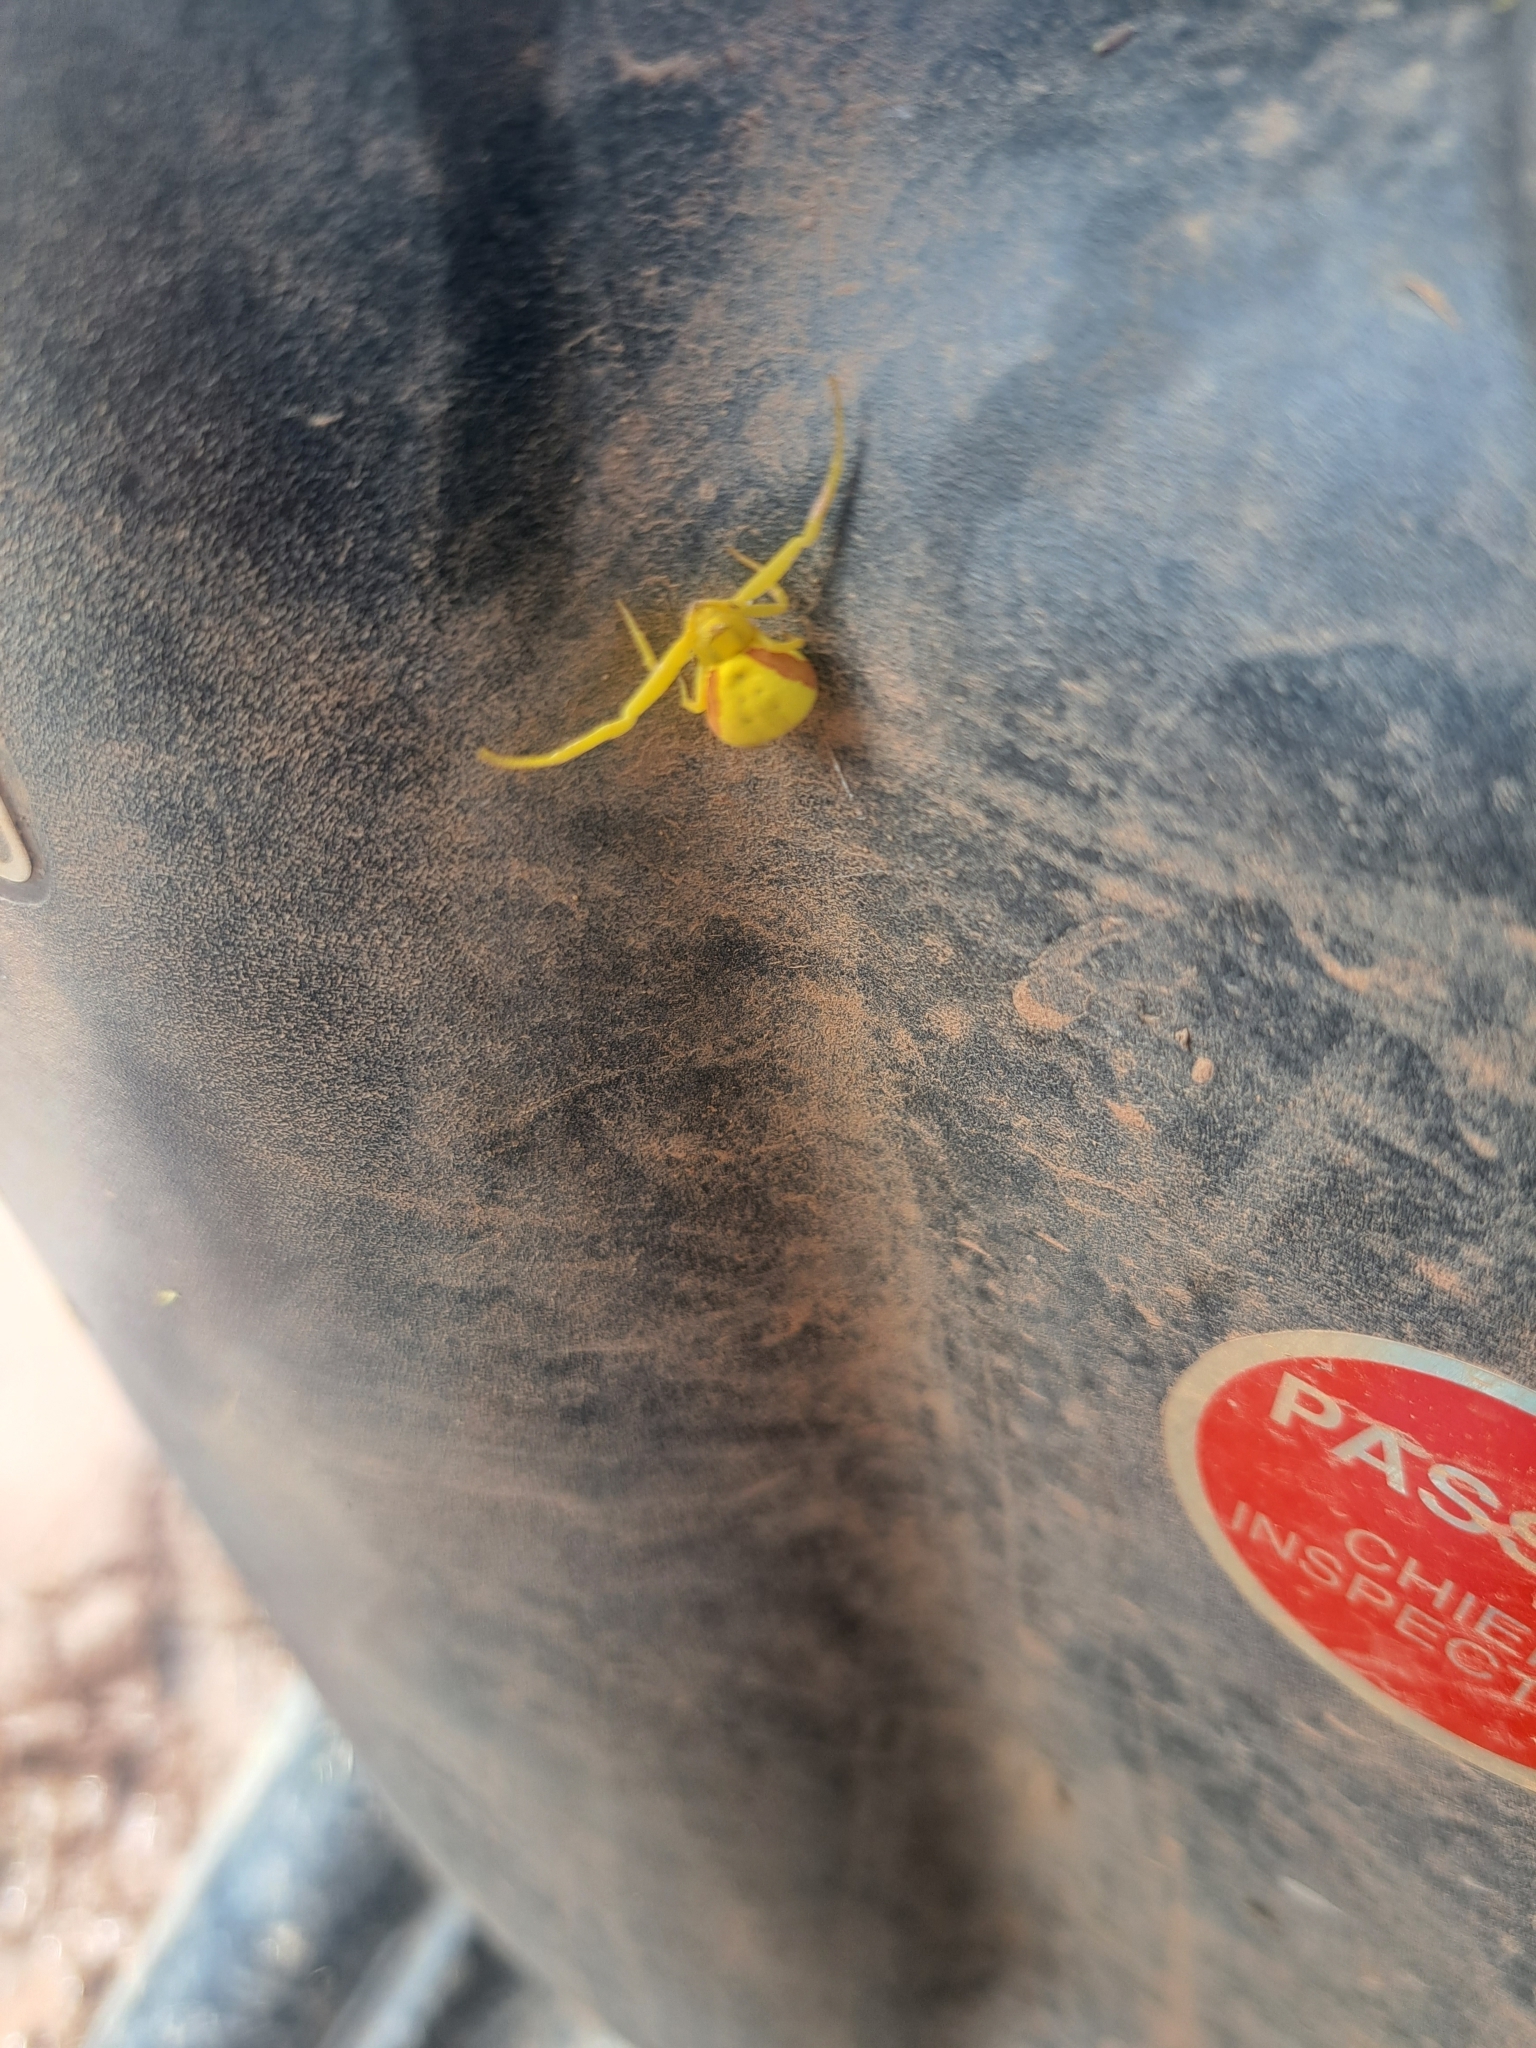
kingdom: Animalia
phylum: Arthropoda
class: Arachnida
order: Araneae
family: Thomisidae
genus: Misumena
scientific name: Misumena vatia
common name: Goldenrod crab spider
